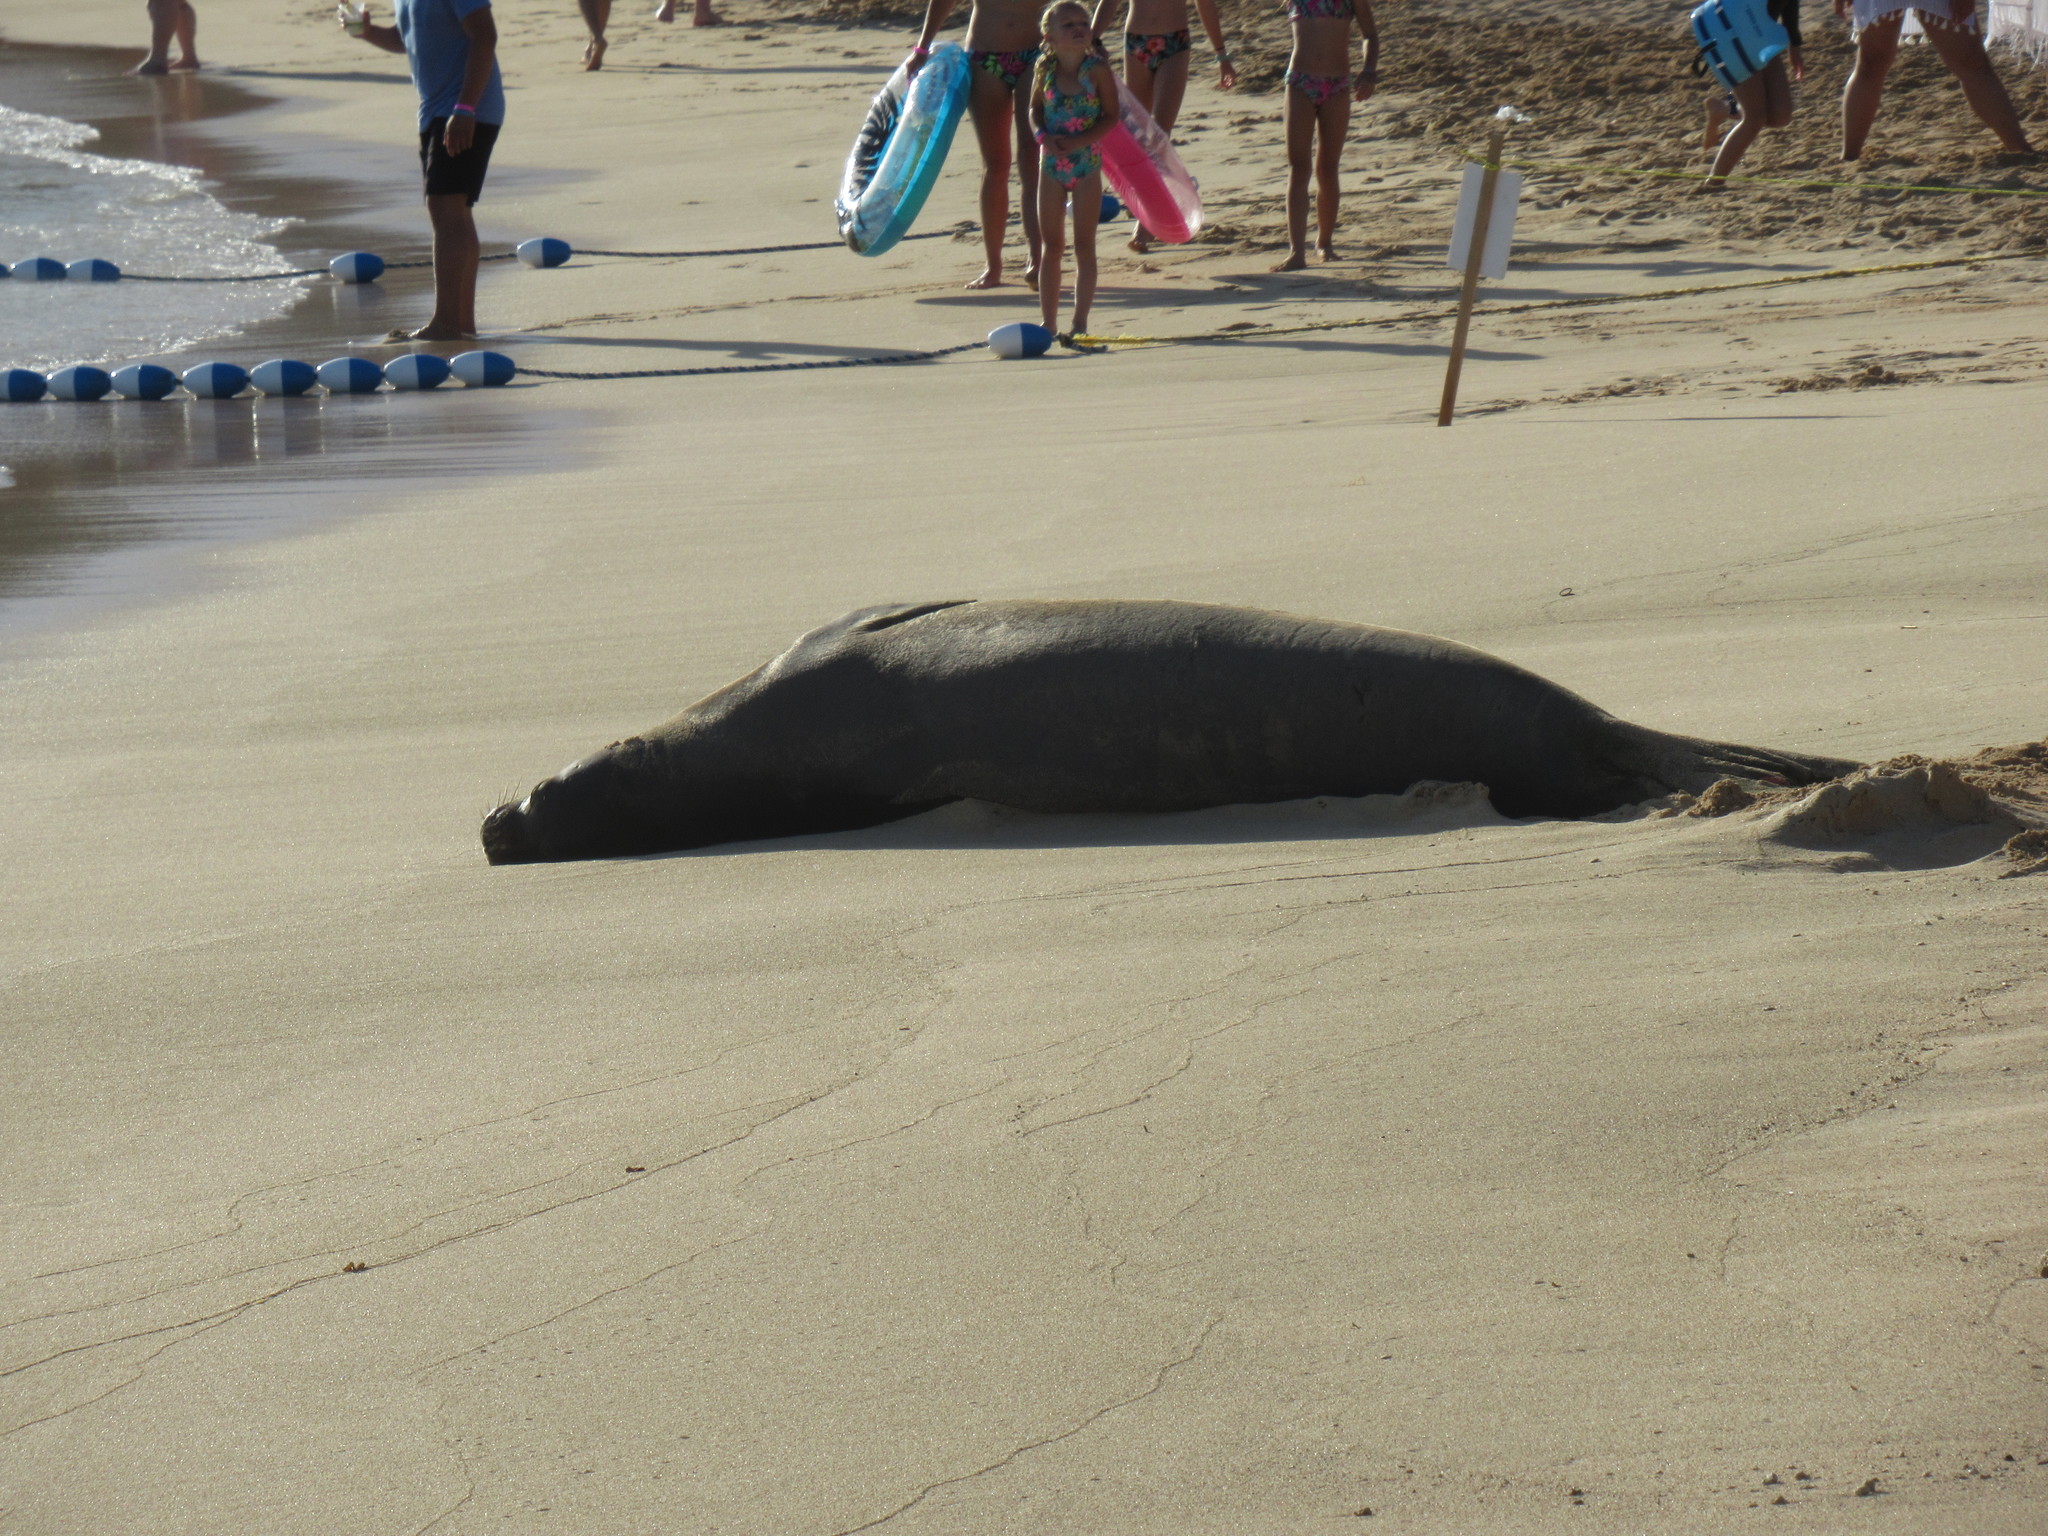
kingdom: Animalia
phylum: Chordata
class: Mammalia
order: Carnivora
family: Phocidae
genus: Neomonachus
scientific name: Neomonachus schauinslandi
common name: Hawaiian monk seal
